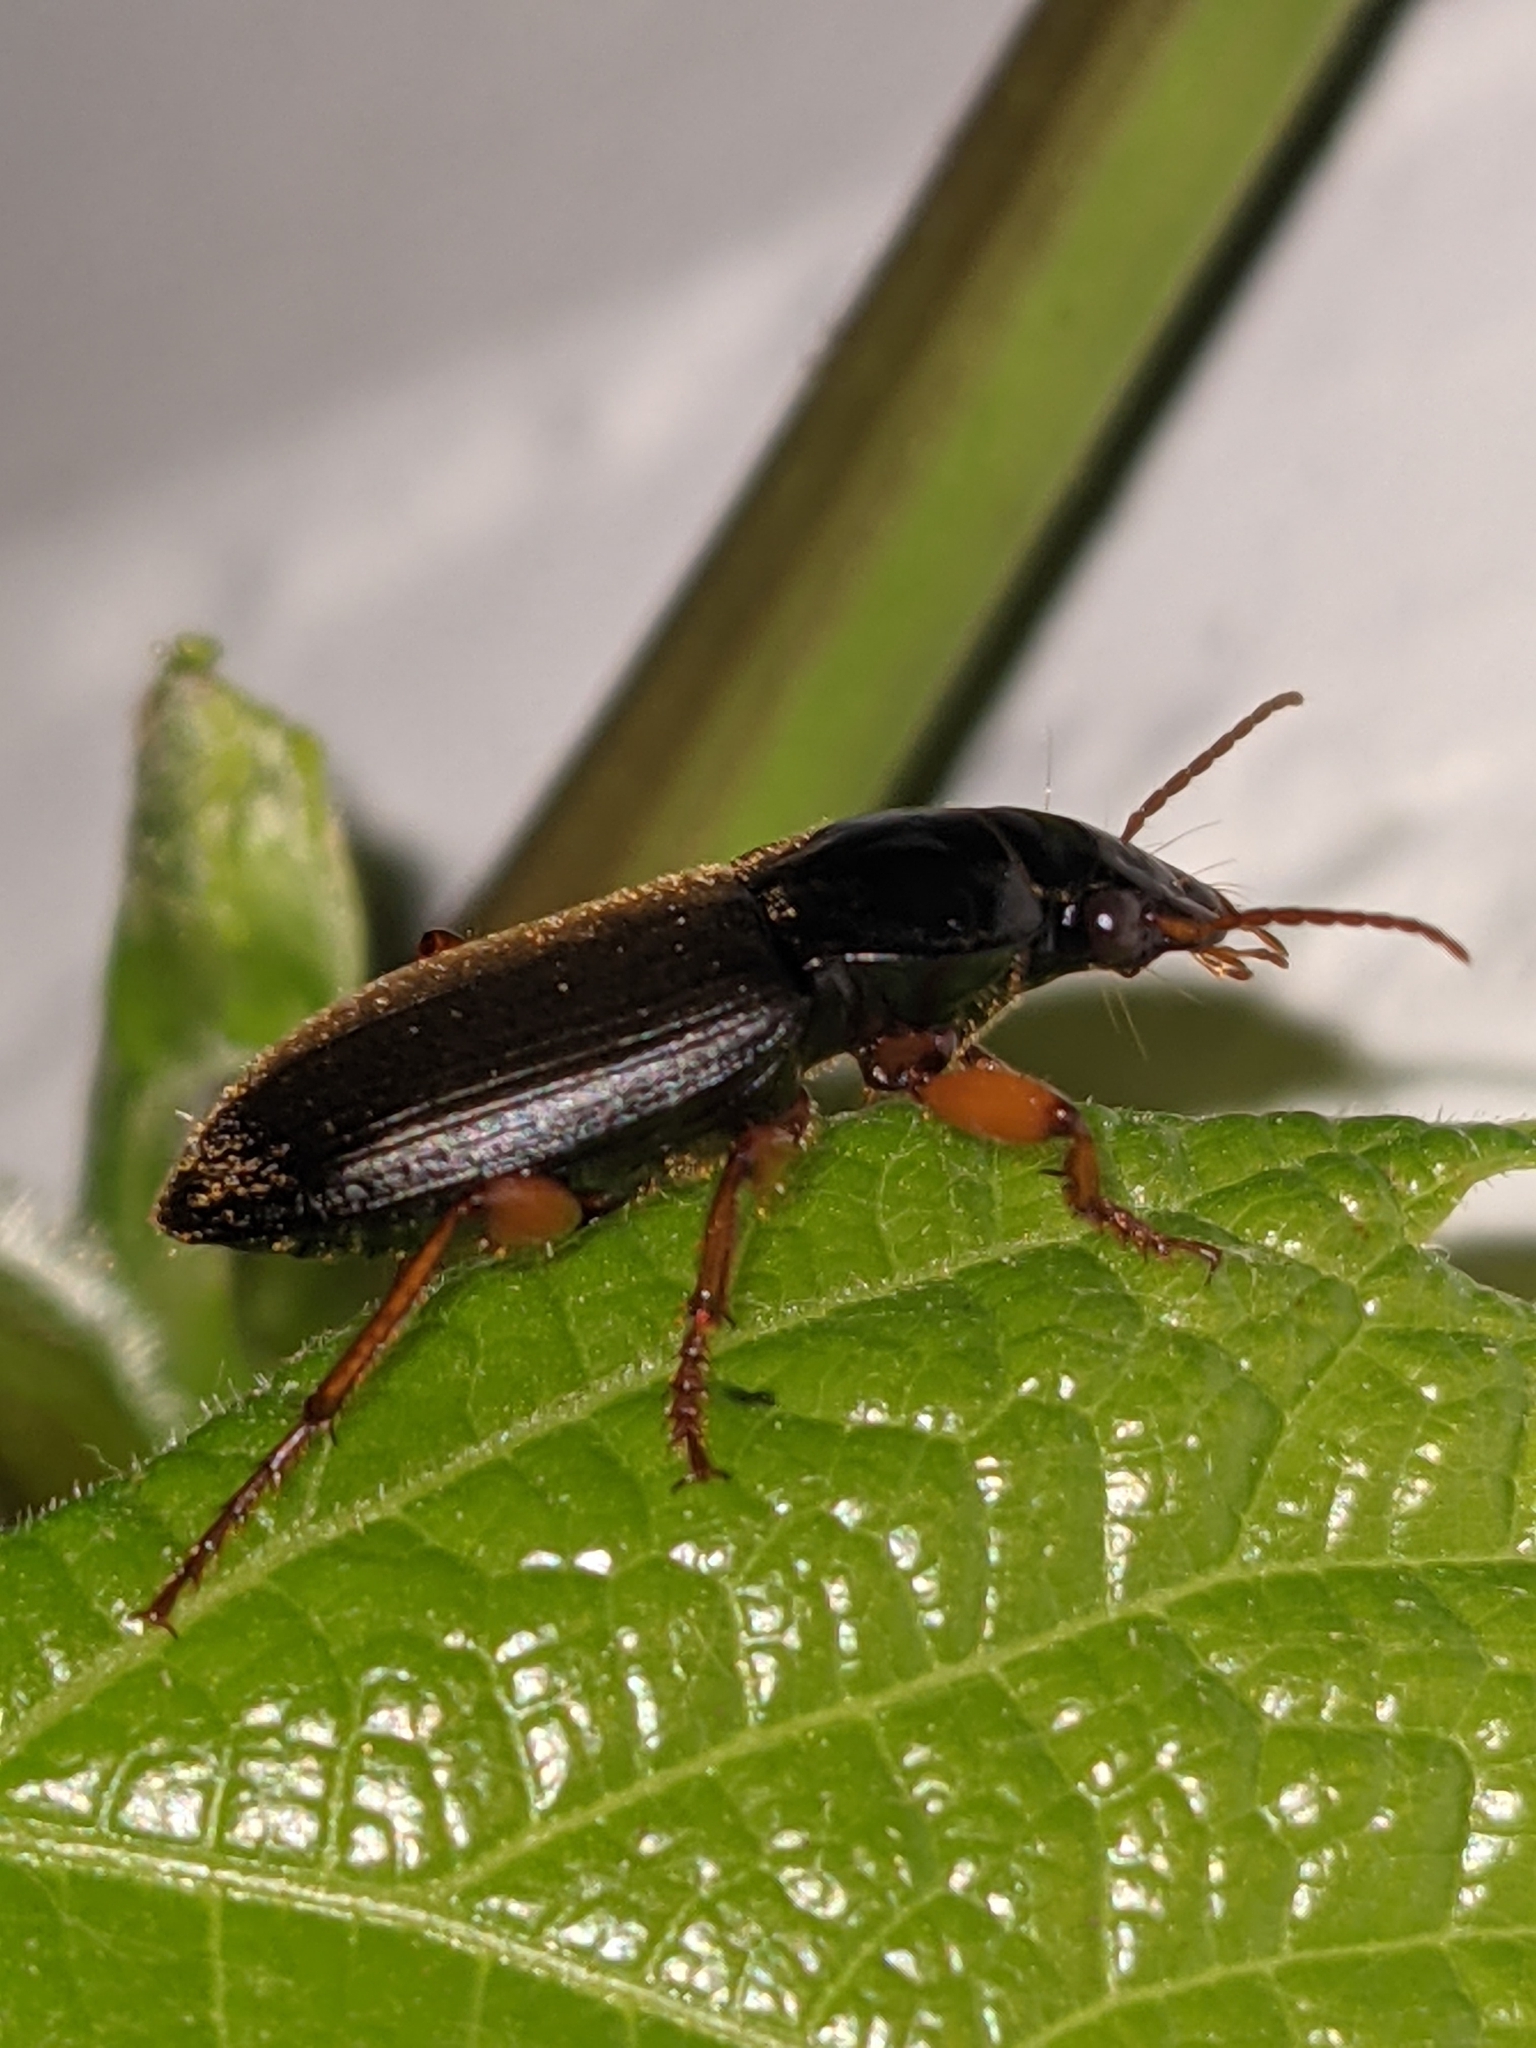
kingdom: Animalia
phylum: Arthropoda
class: Insecta
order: Coleoptera
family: Carabidae
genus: Harpalus
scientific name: Harpalus rufipes
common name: Strawberry harp ground beetle
